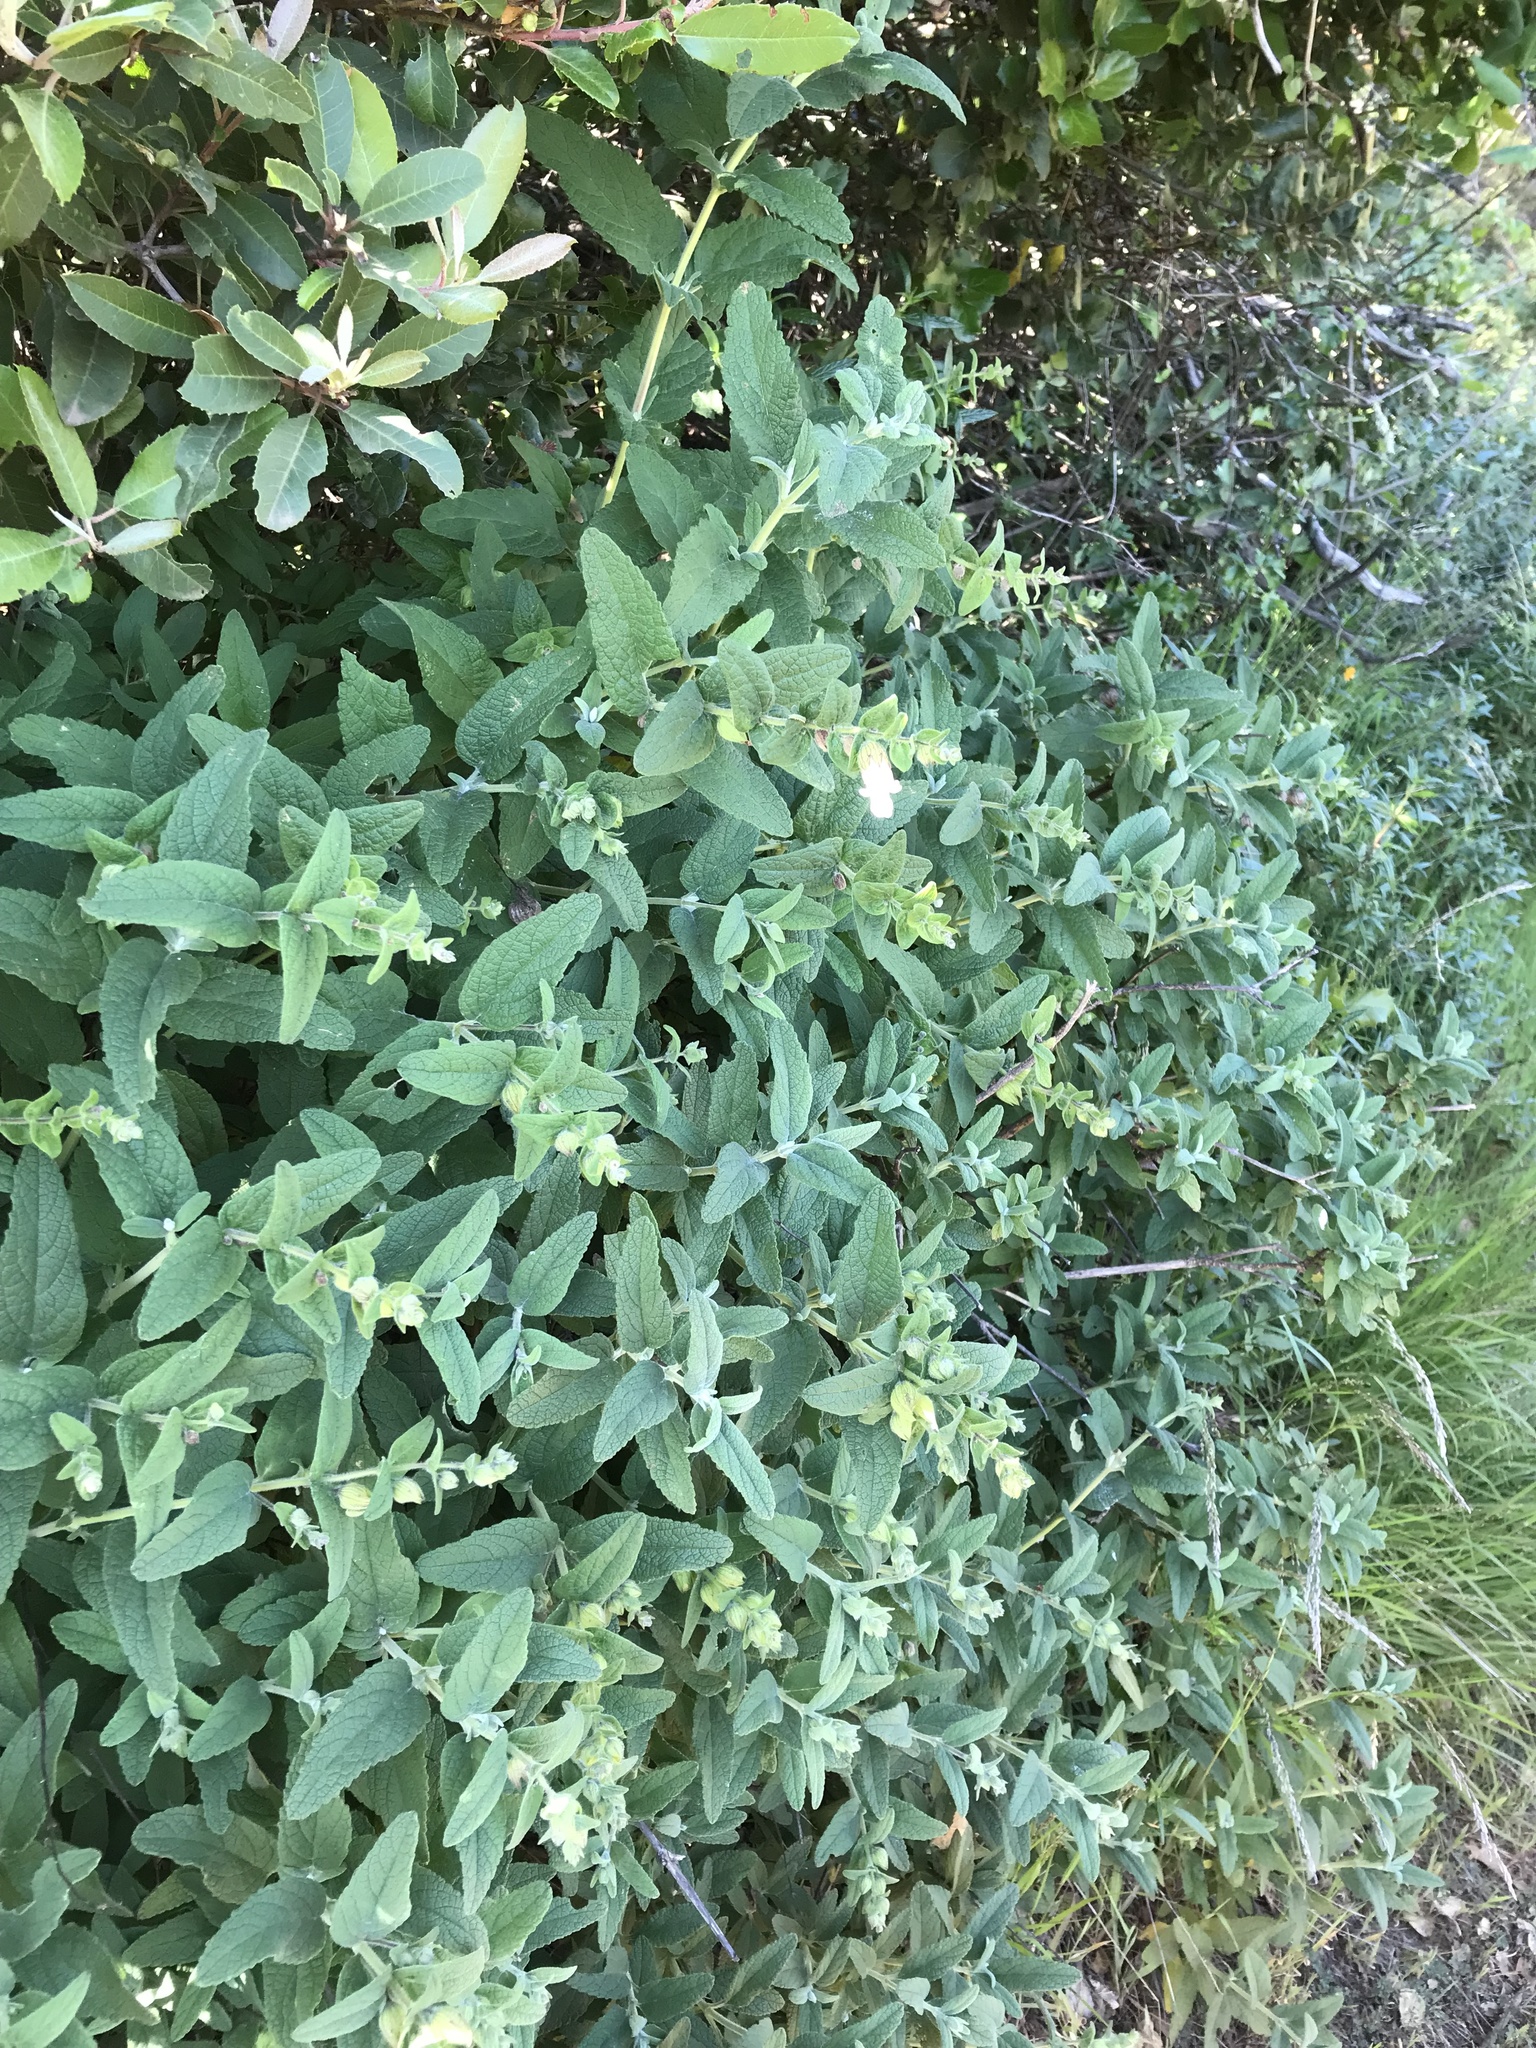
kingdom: Plantae
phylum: Tracheophyta
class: Magnoliopsida
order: Lamiales
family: Lamiaceae
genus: Lepechinia
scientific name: Lepechinia calycina
